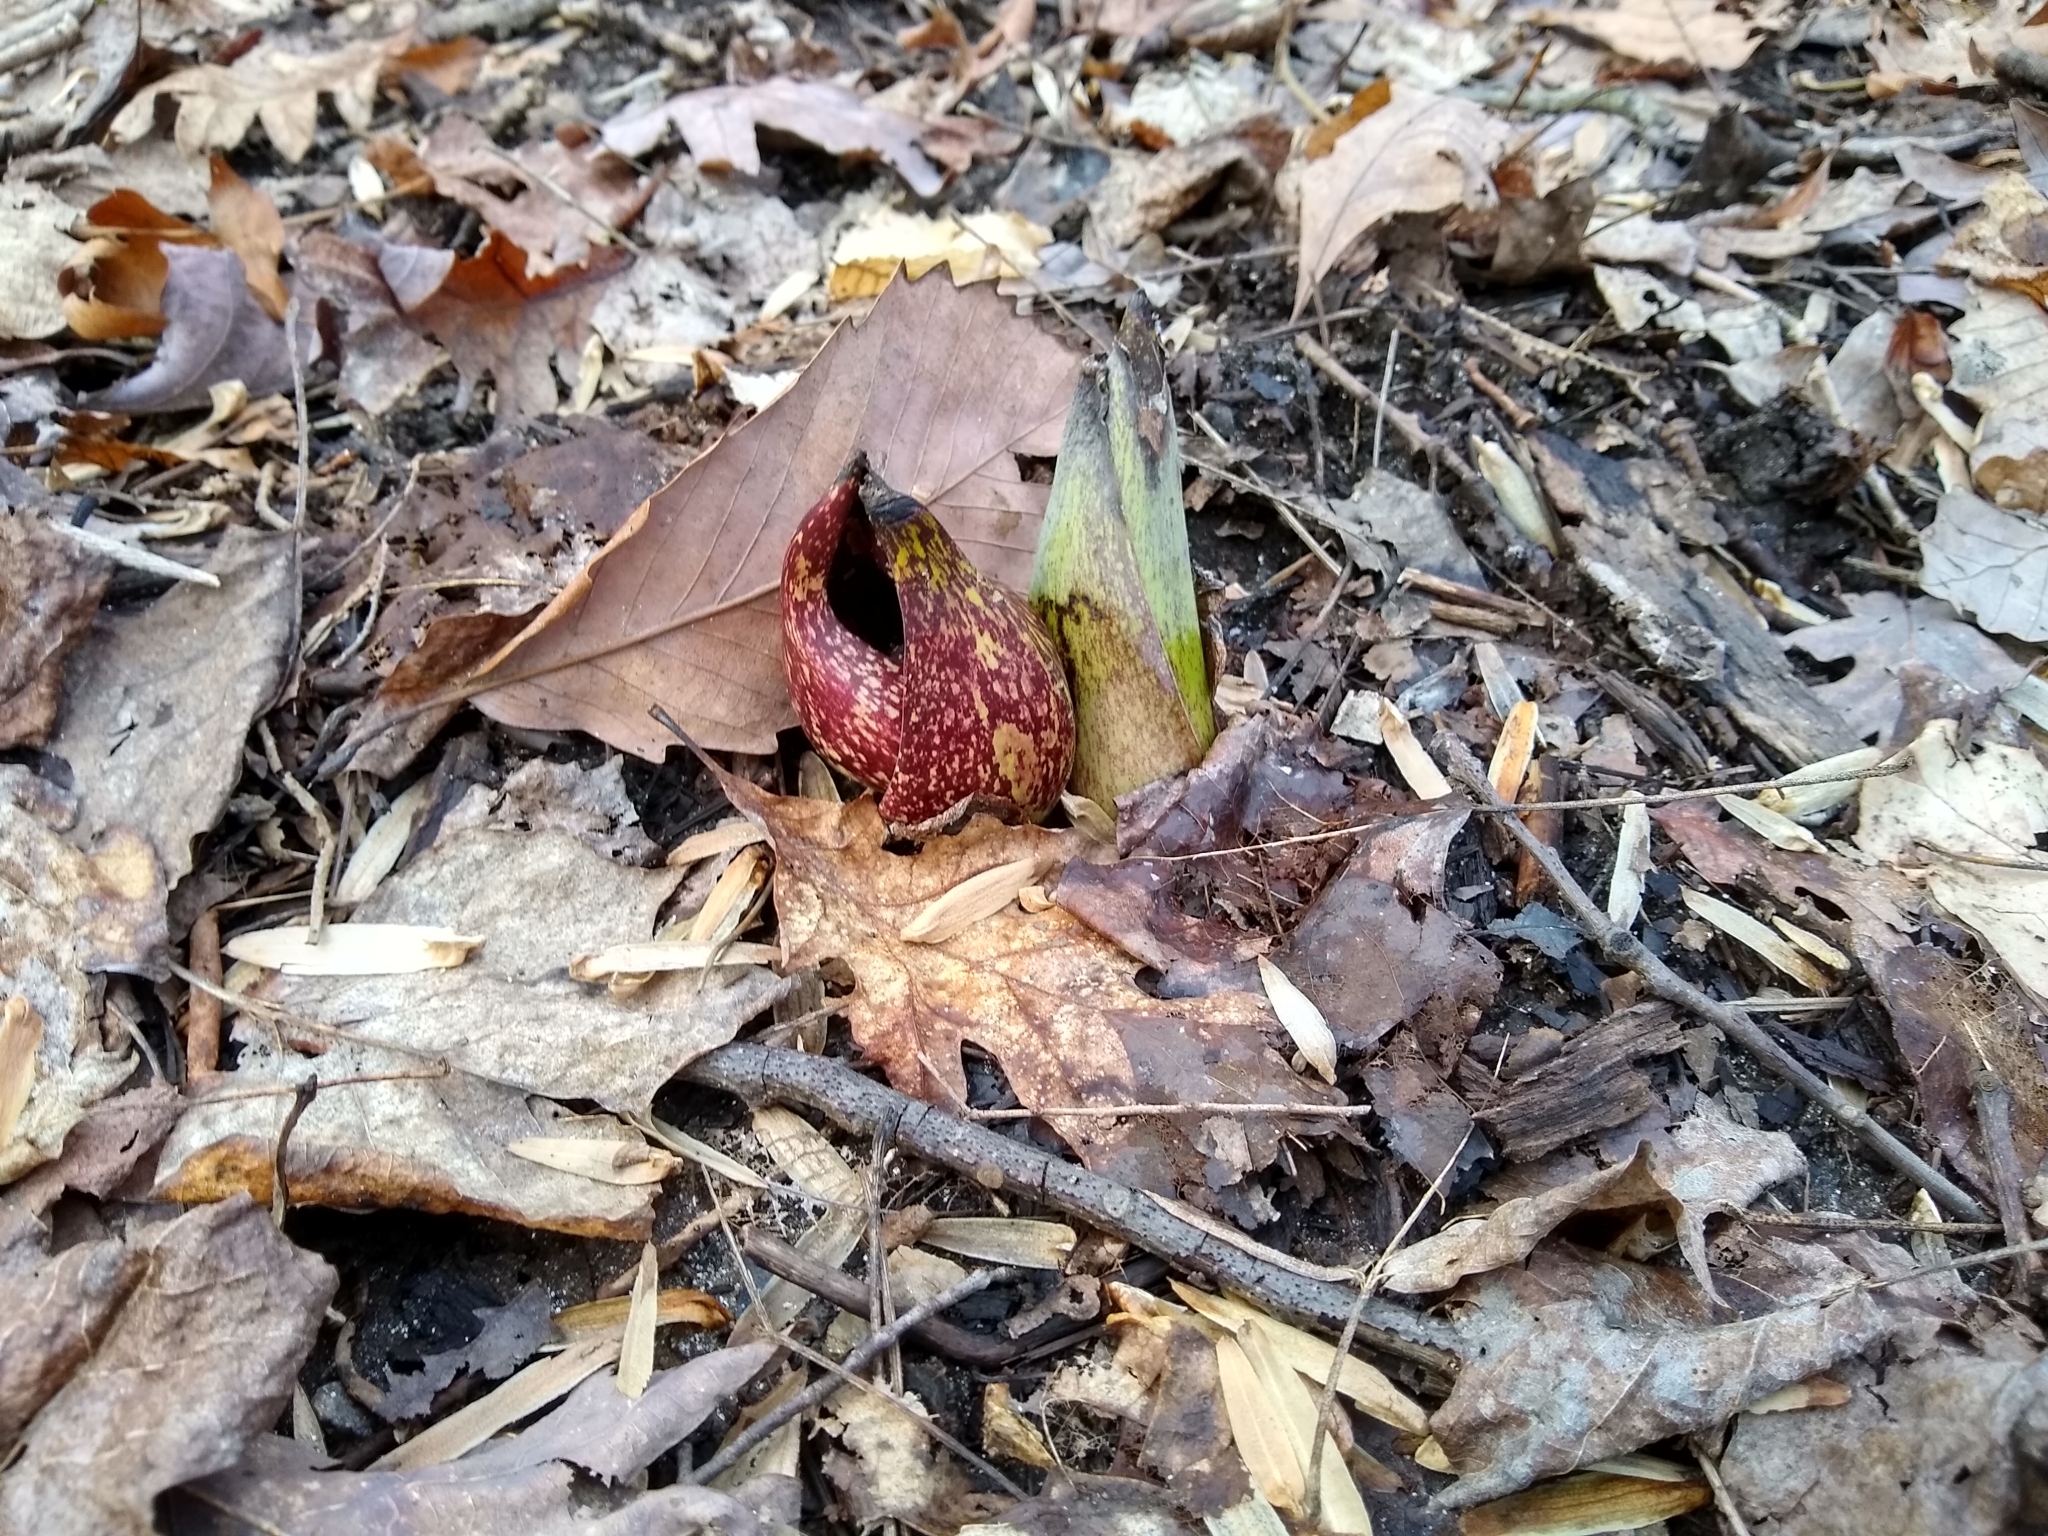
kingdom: Plantae
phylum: Tracheophyta
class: Liliopsida
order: Alismatales
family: Araceae
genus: Symplocarpus
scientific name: Symplocarpus foetidus
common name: Eastern skunk cabbage
